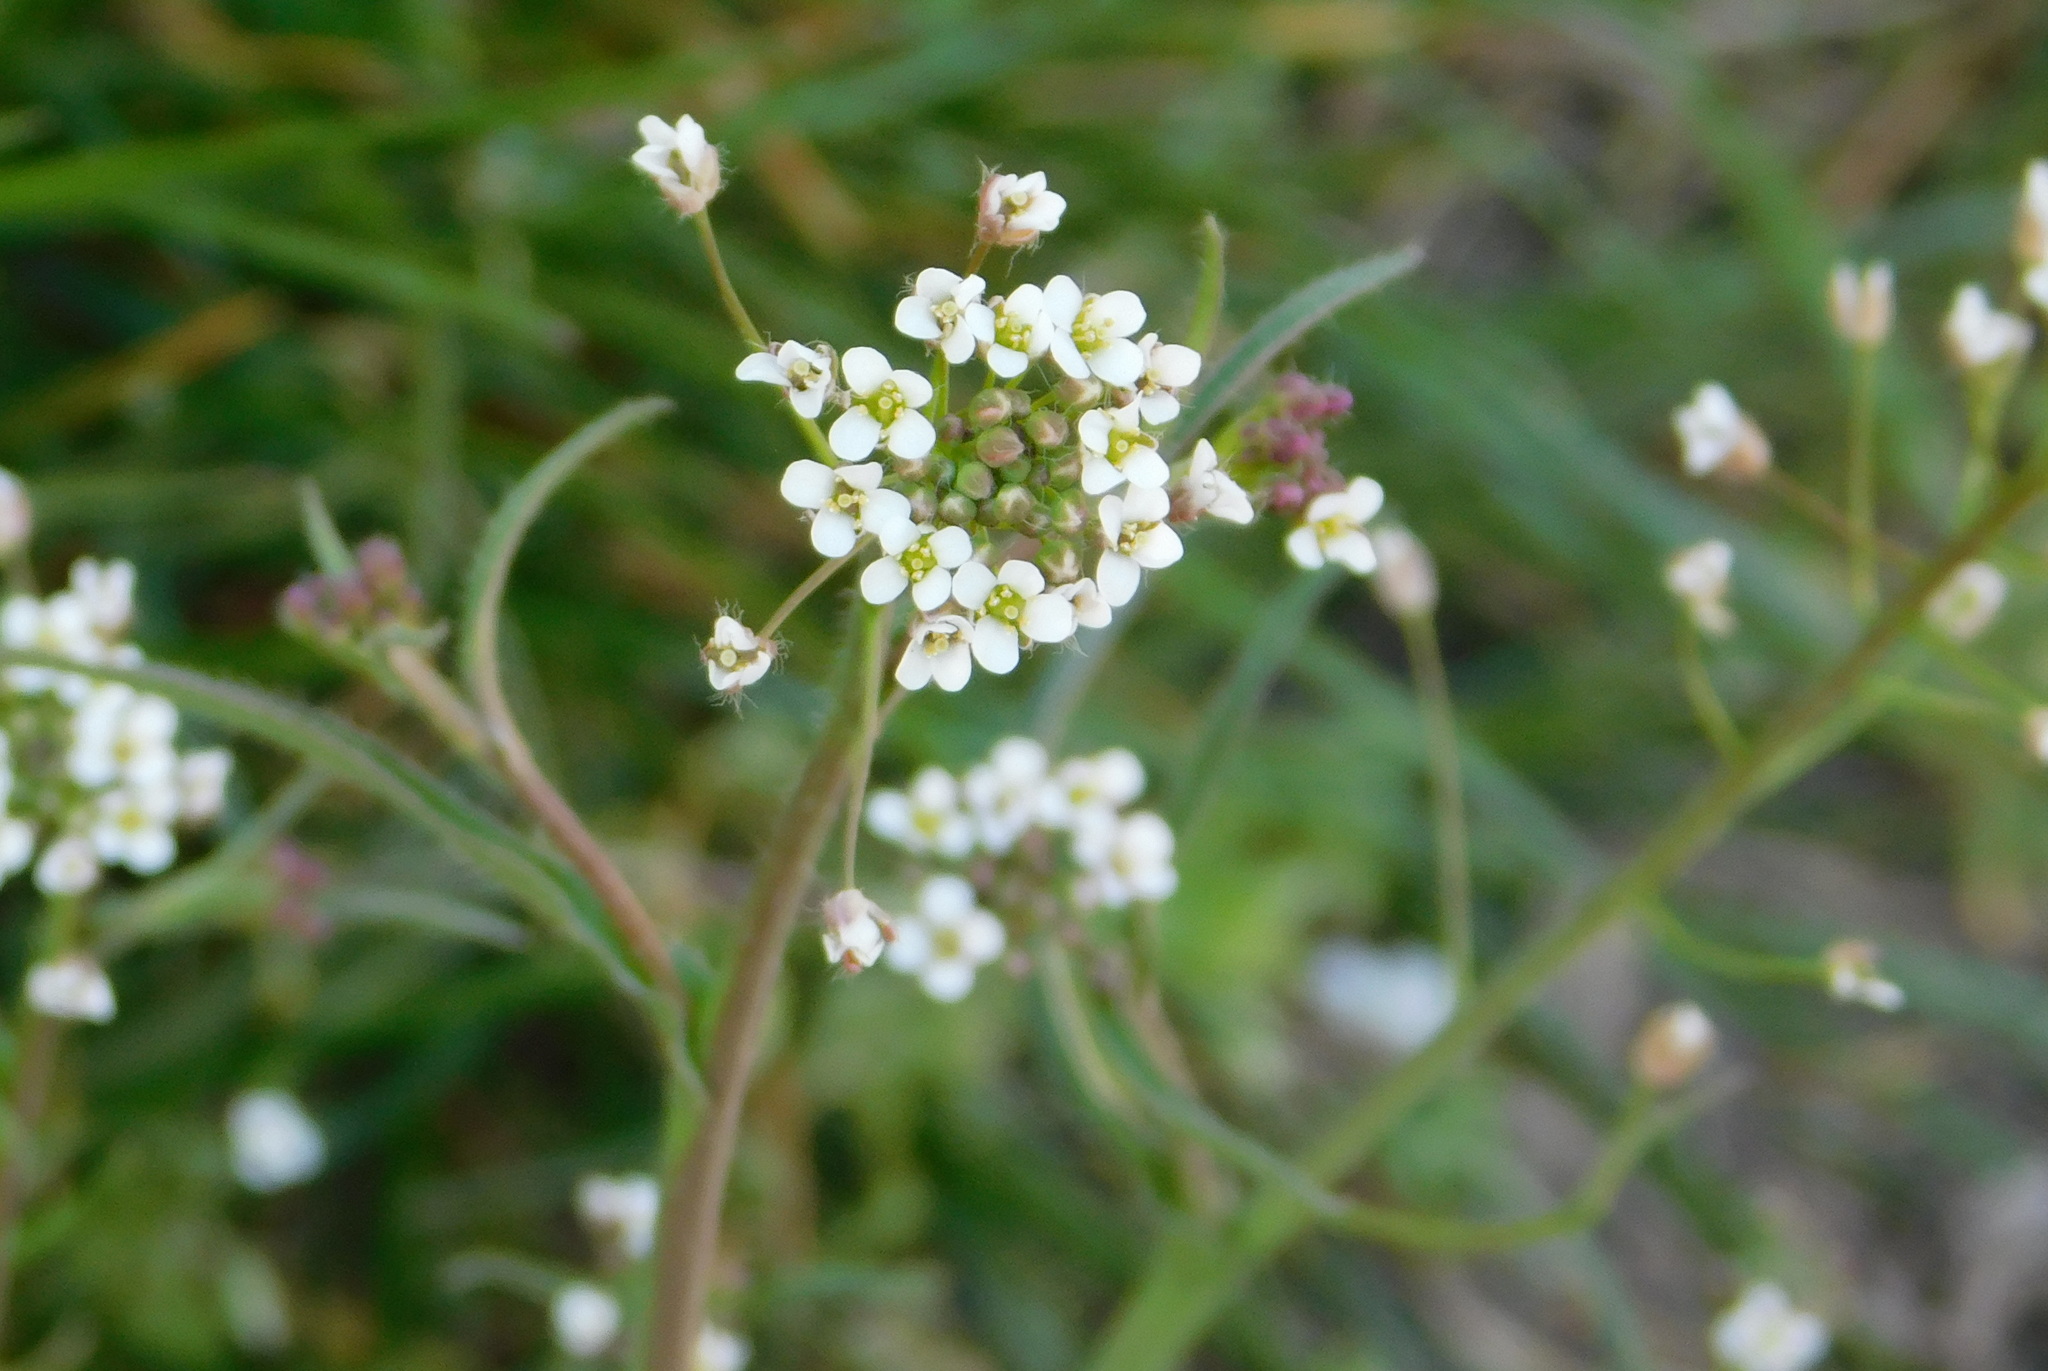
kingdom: Plantae
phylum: Tracheophyta
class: Magnoliopsida
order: Brassicales
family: Brassicaceae
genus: Capsella
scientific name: Capsella bursa-pastoris
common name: Shepherd's purse
